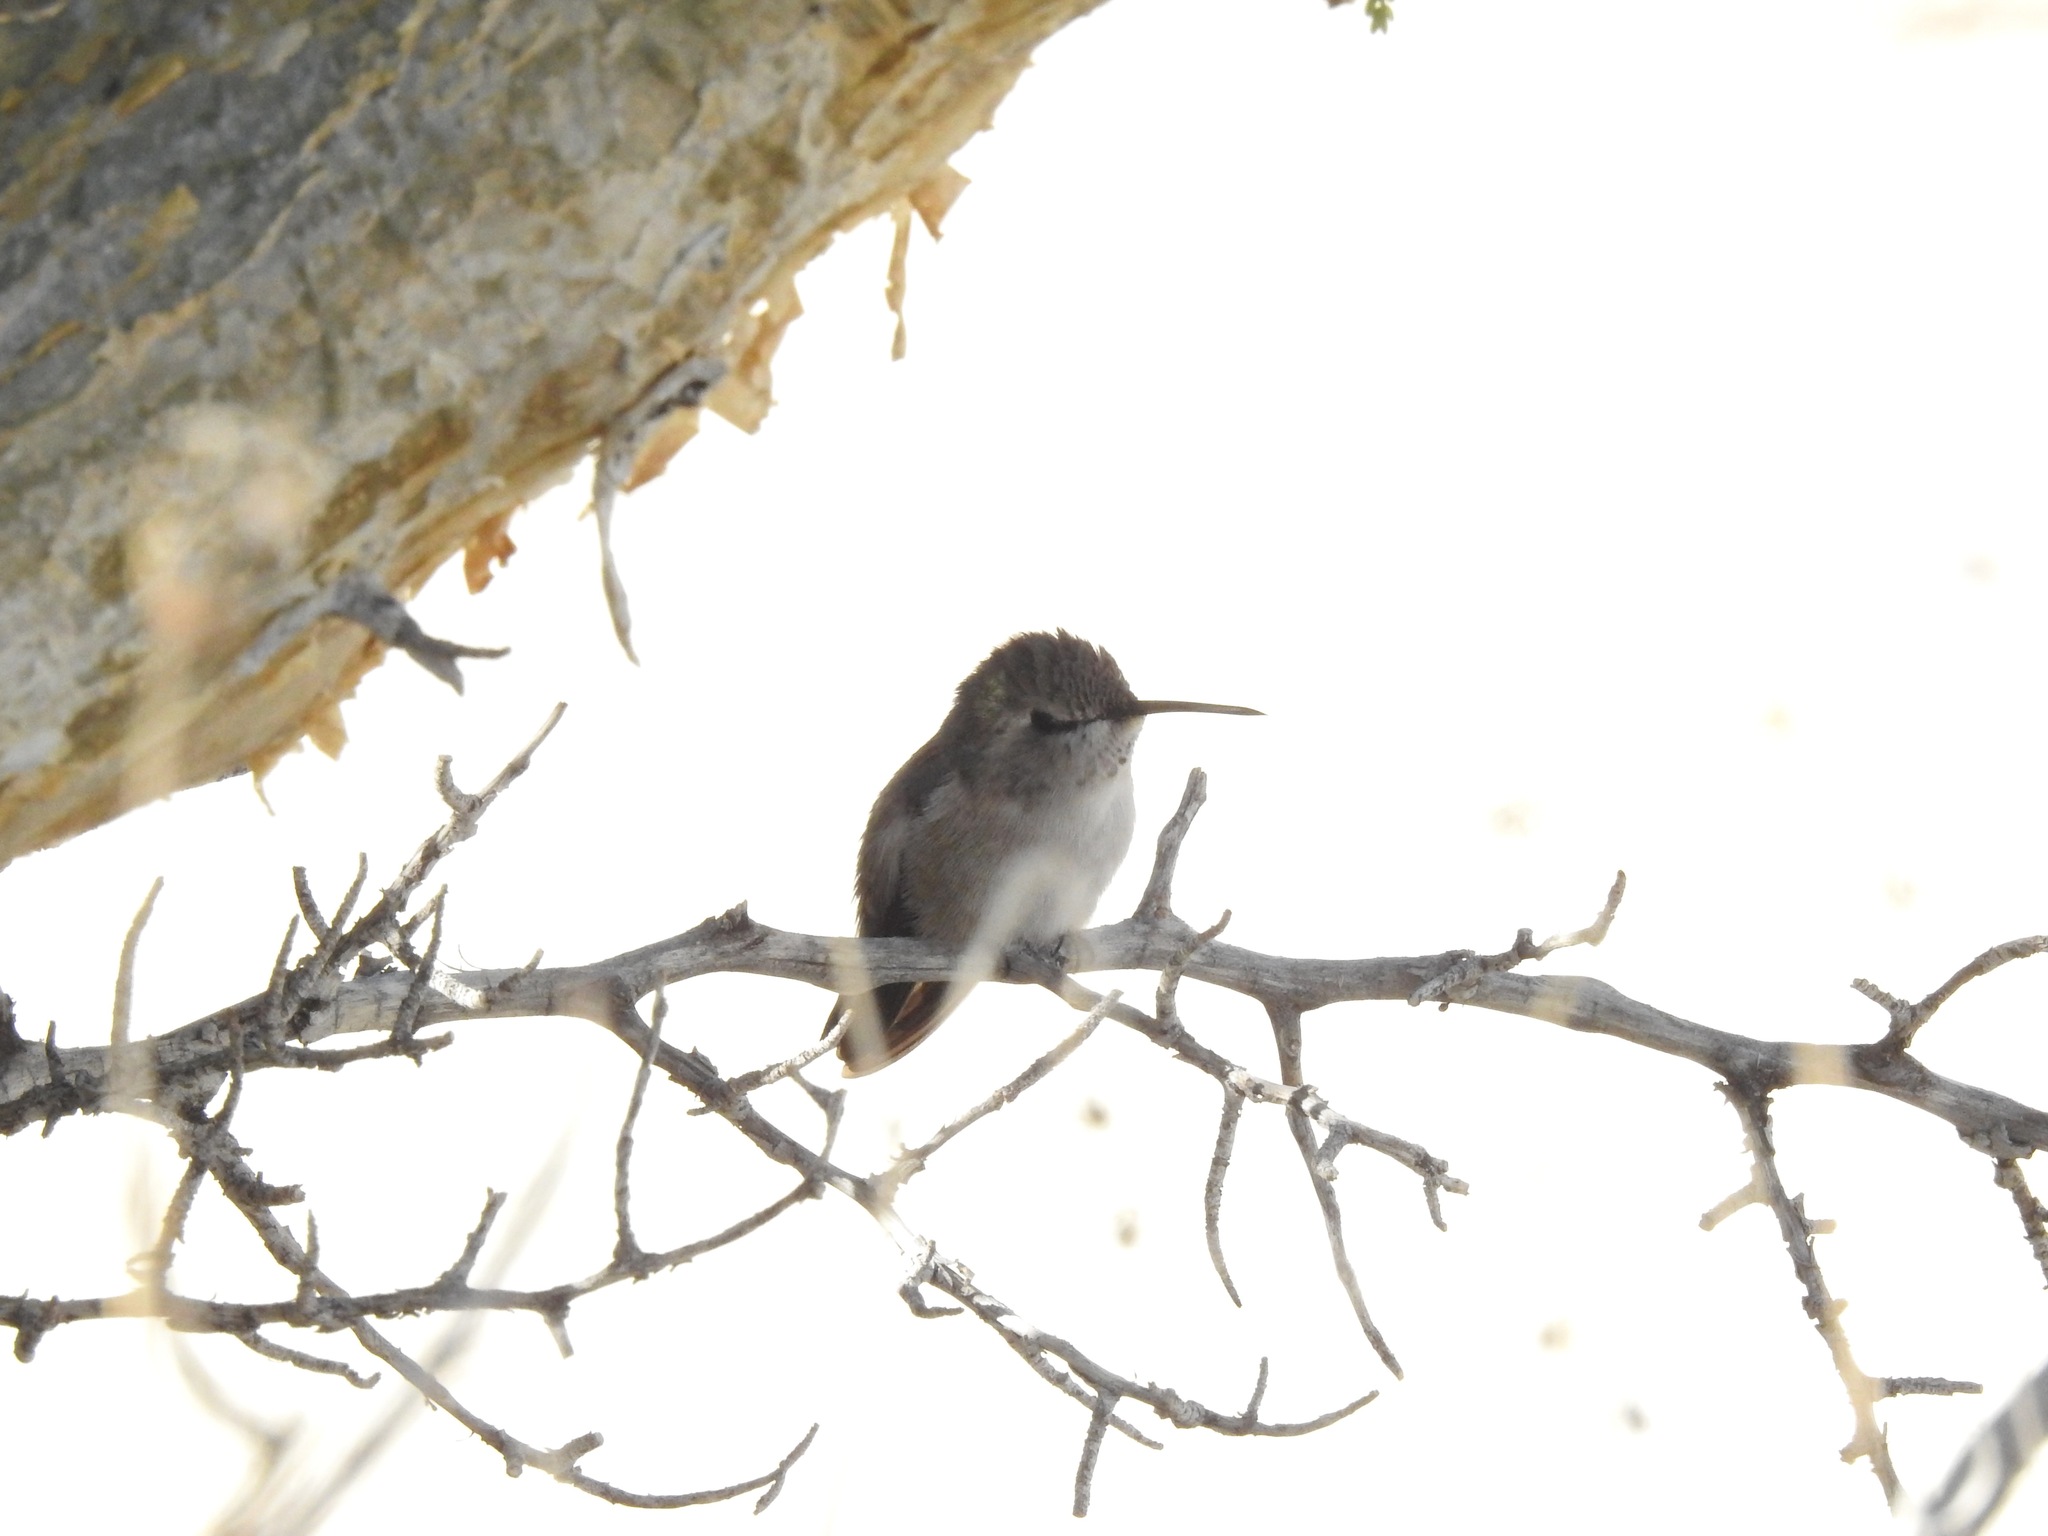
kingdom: Animalia
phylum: Chordata
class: Aves
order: Apodiformes
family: Trochilidae
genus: Calypte
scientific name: Calypte costae
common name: Costa's hummingbird
